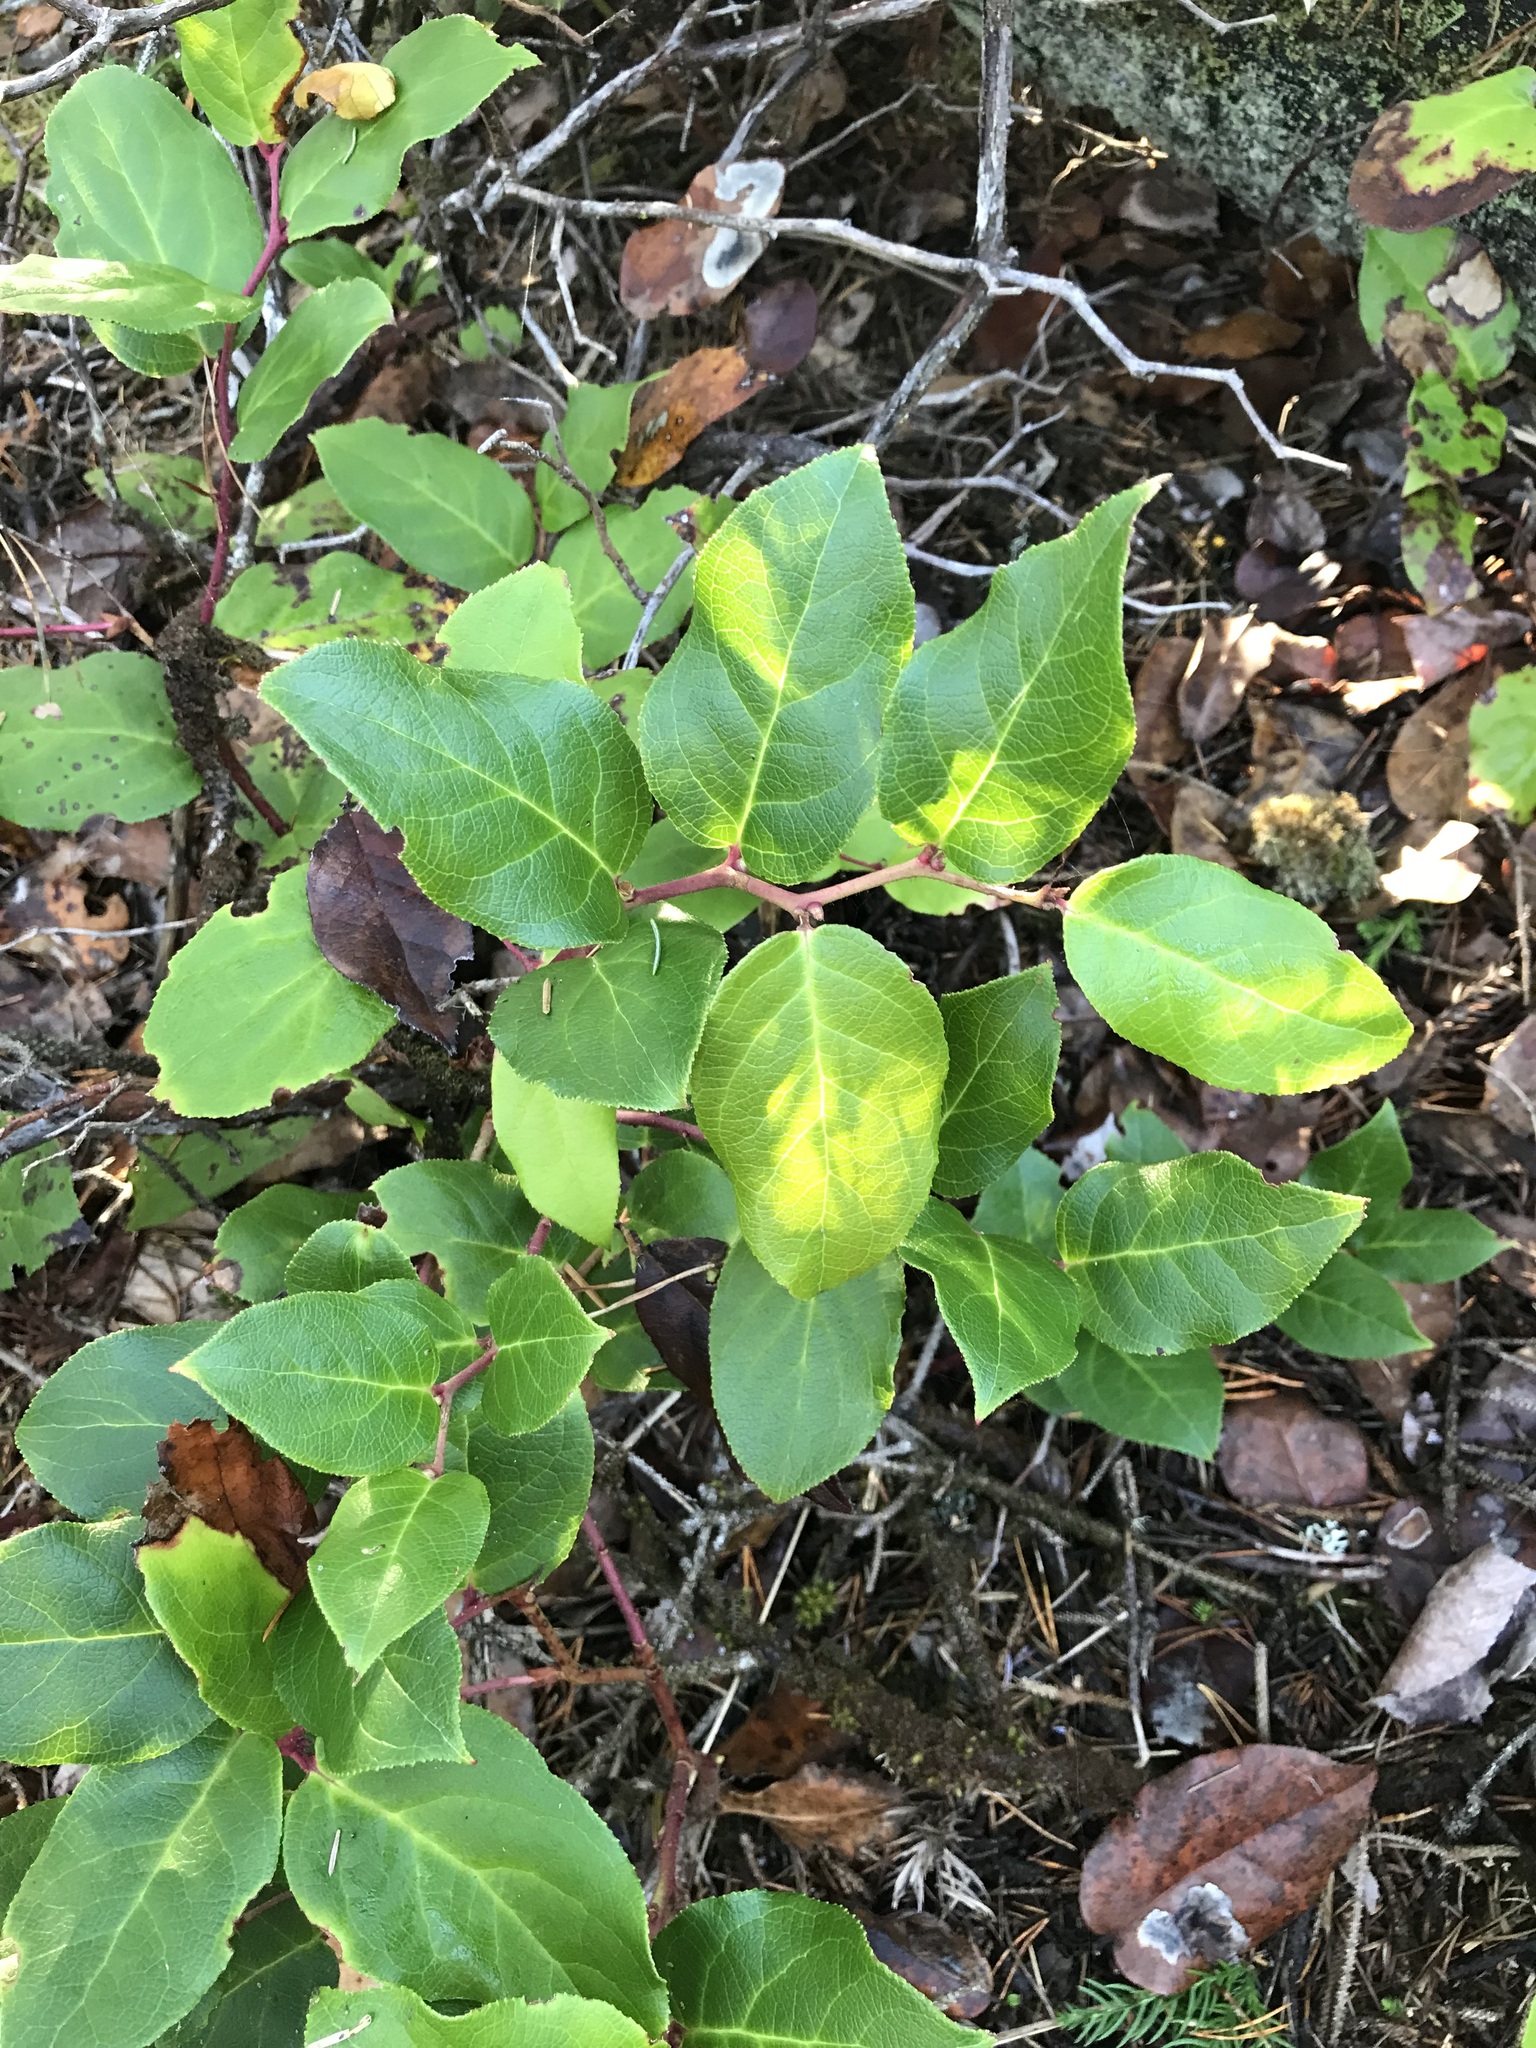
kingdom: Plantae
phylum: Tracheophyta
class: Magnoliopsida
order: Ericales
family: Ericaceae
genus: Gaultheria
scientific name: Gaultheria shallon
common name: Shallon
